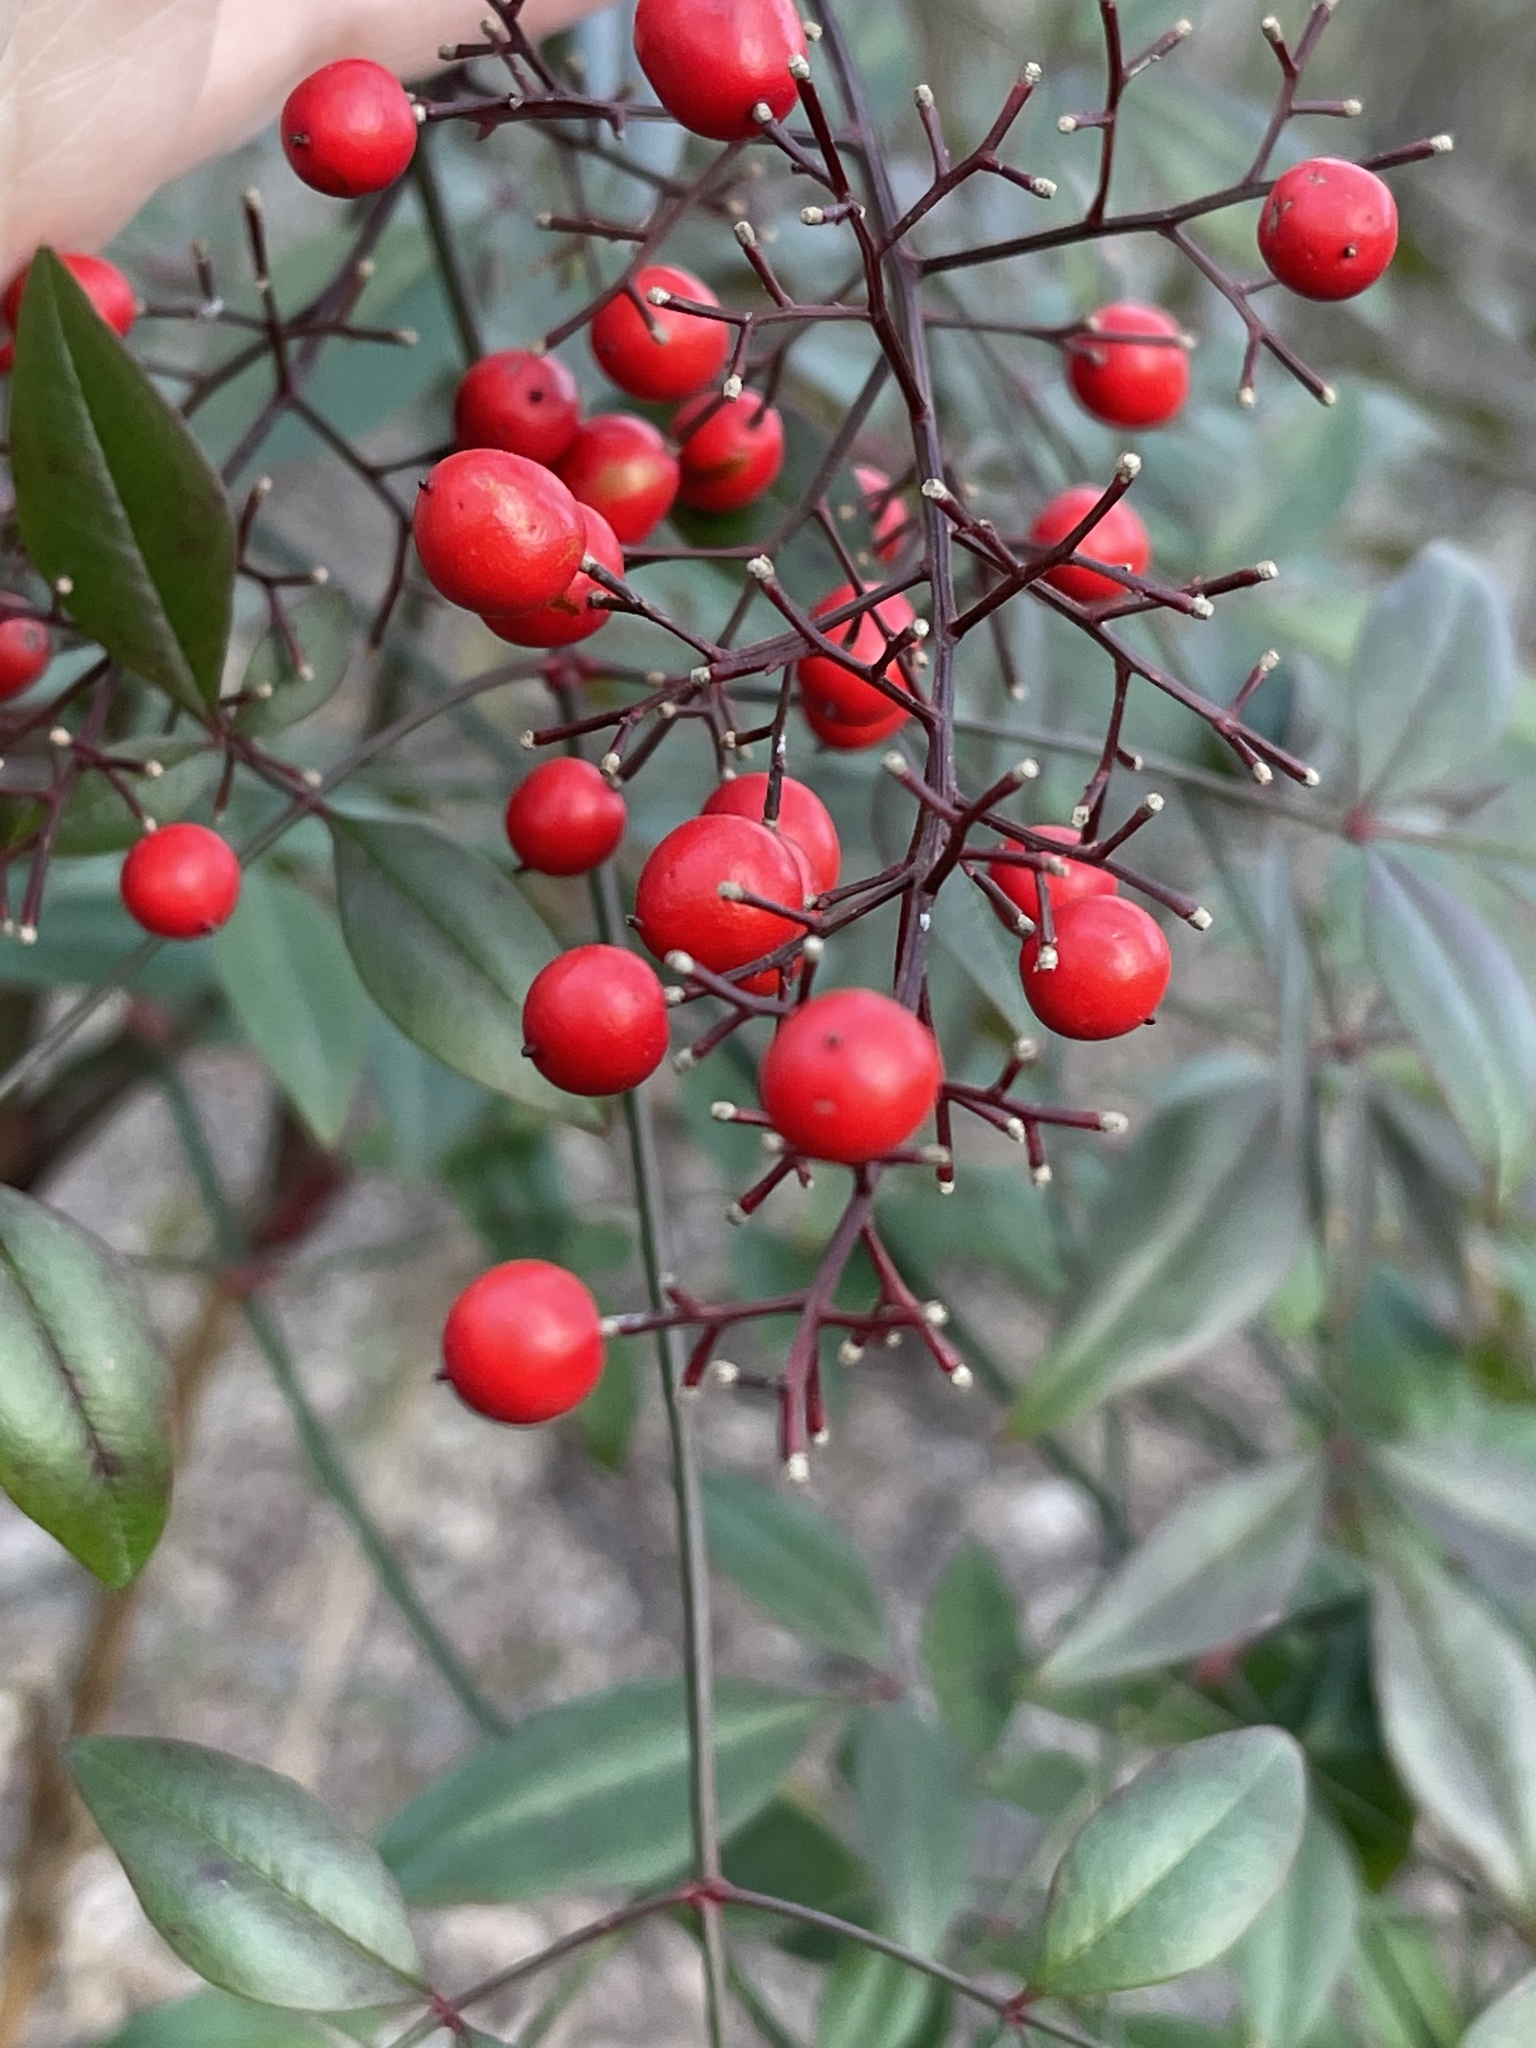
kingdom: Plantae
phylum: Tracheophyta
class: Magnoliopsida
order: Ranunculales
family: Berberidaceae
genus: Nandina
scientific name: Nandina domestica
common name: Sacred bamboo
